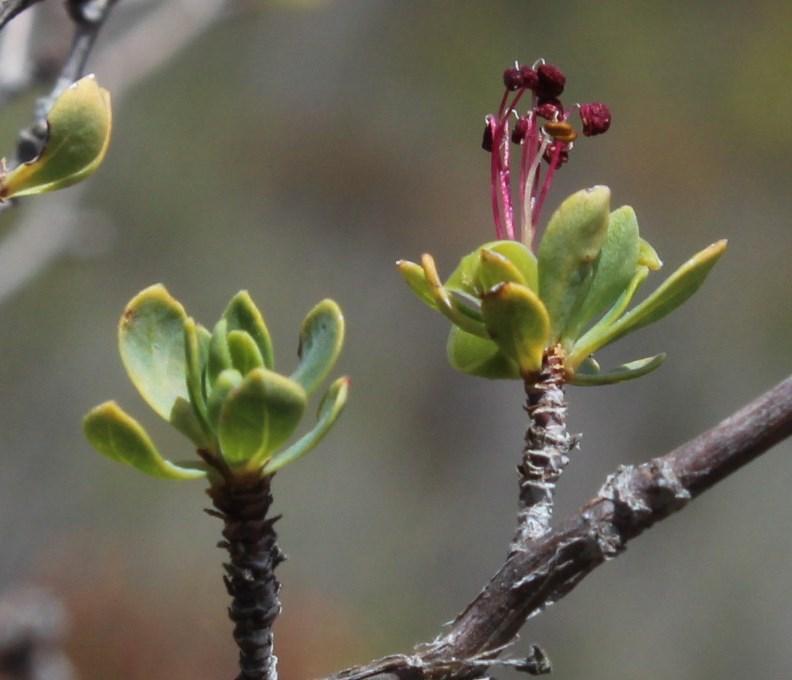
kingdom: Plantae
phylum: Tracheophyta
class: Magnoliopsida
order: Rosales
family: Rosaceae
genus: Cliffortia
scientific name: Cliffortia obovata
